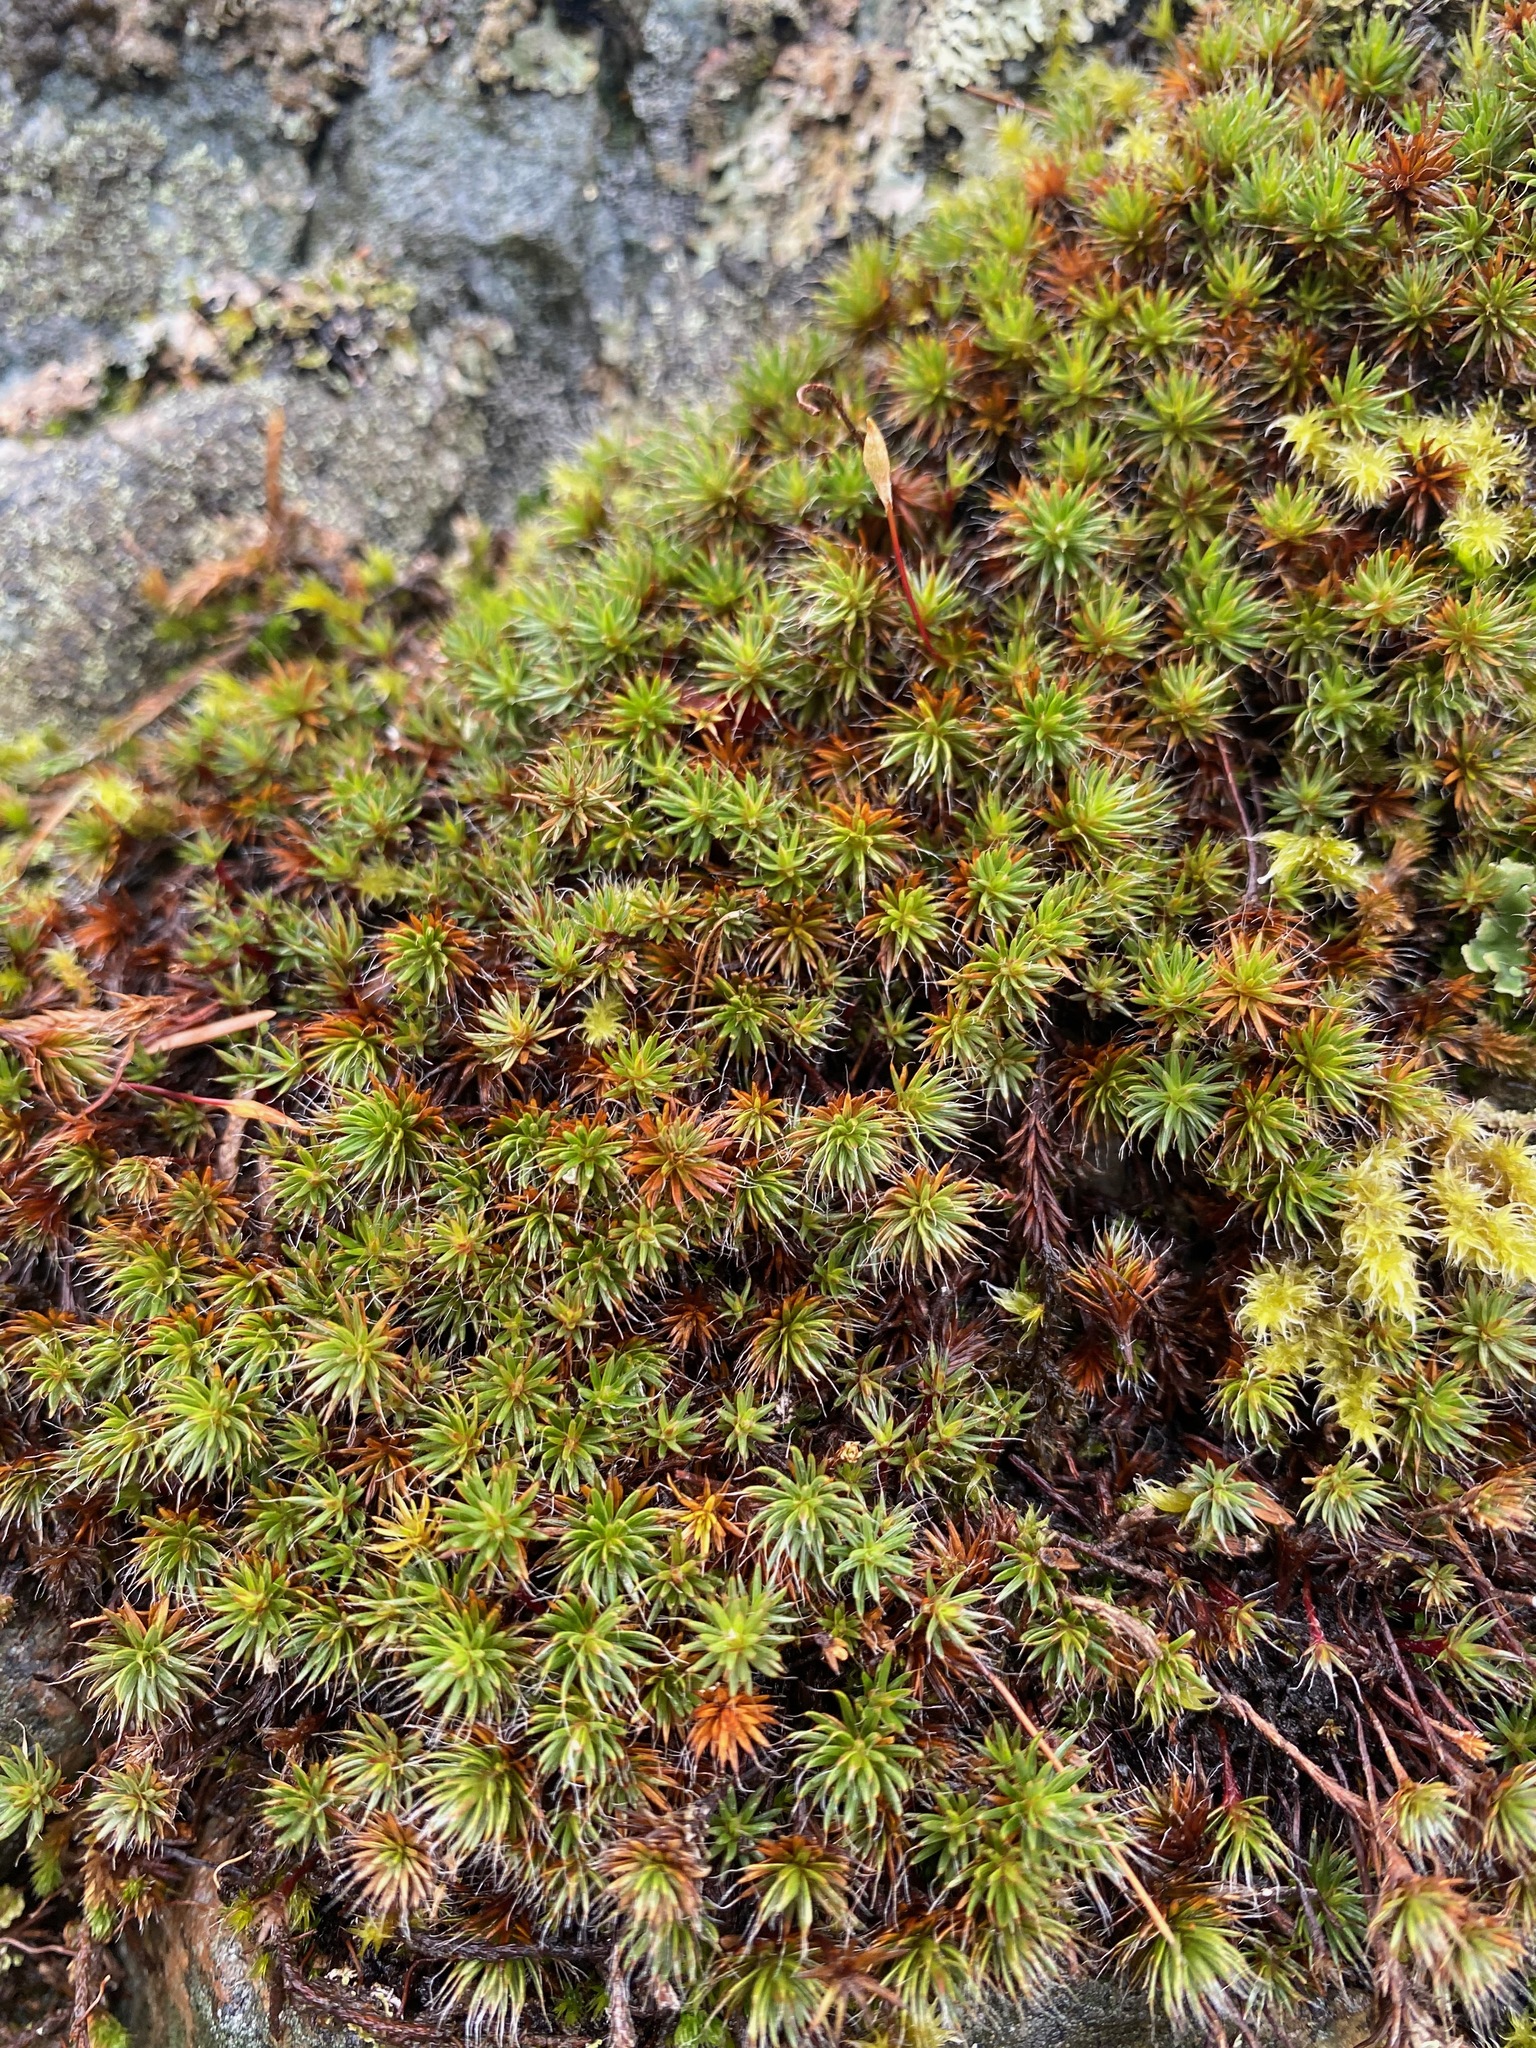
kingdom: Plantae
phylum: Bryophyta
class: Polytrichopsida
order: Polytrichales
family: Polytrichaceae
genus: Polytrichum
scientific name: Polytrichum piliferum
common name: Bristly haircap
